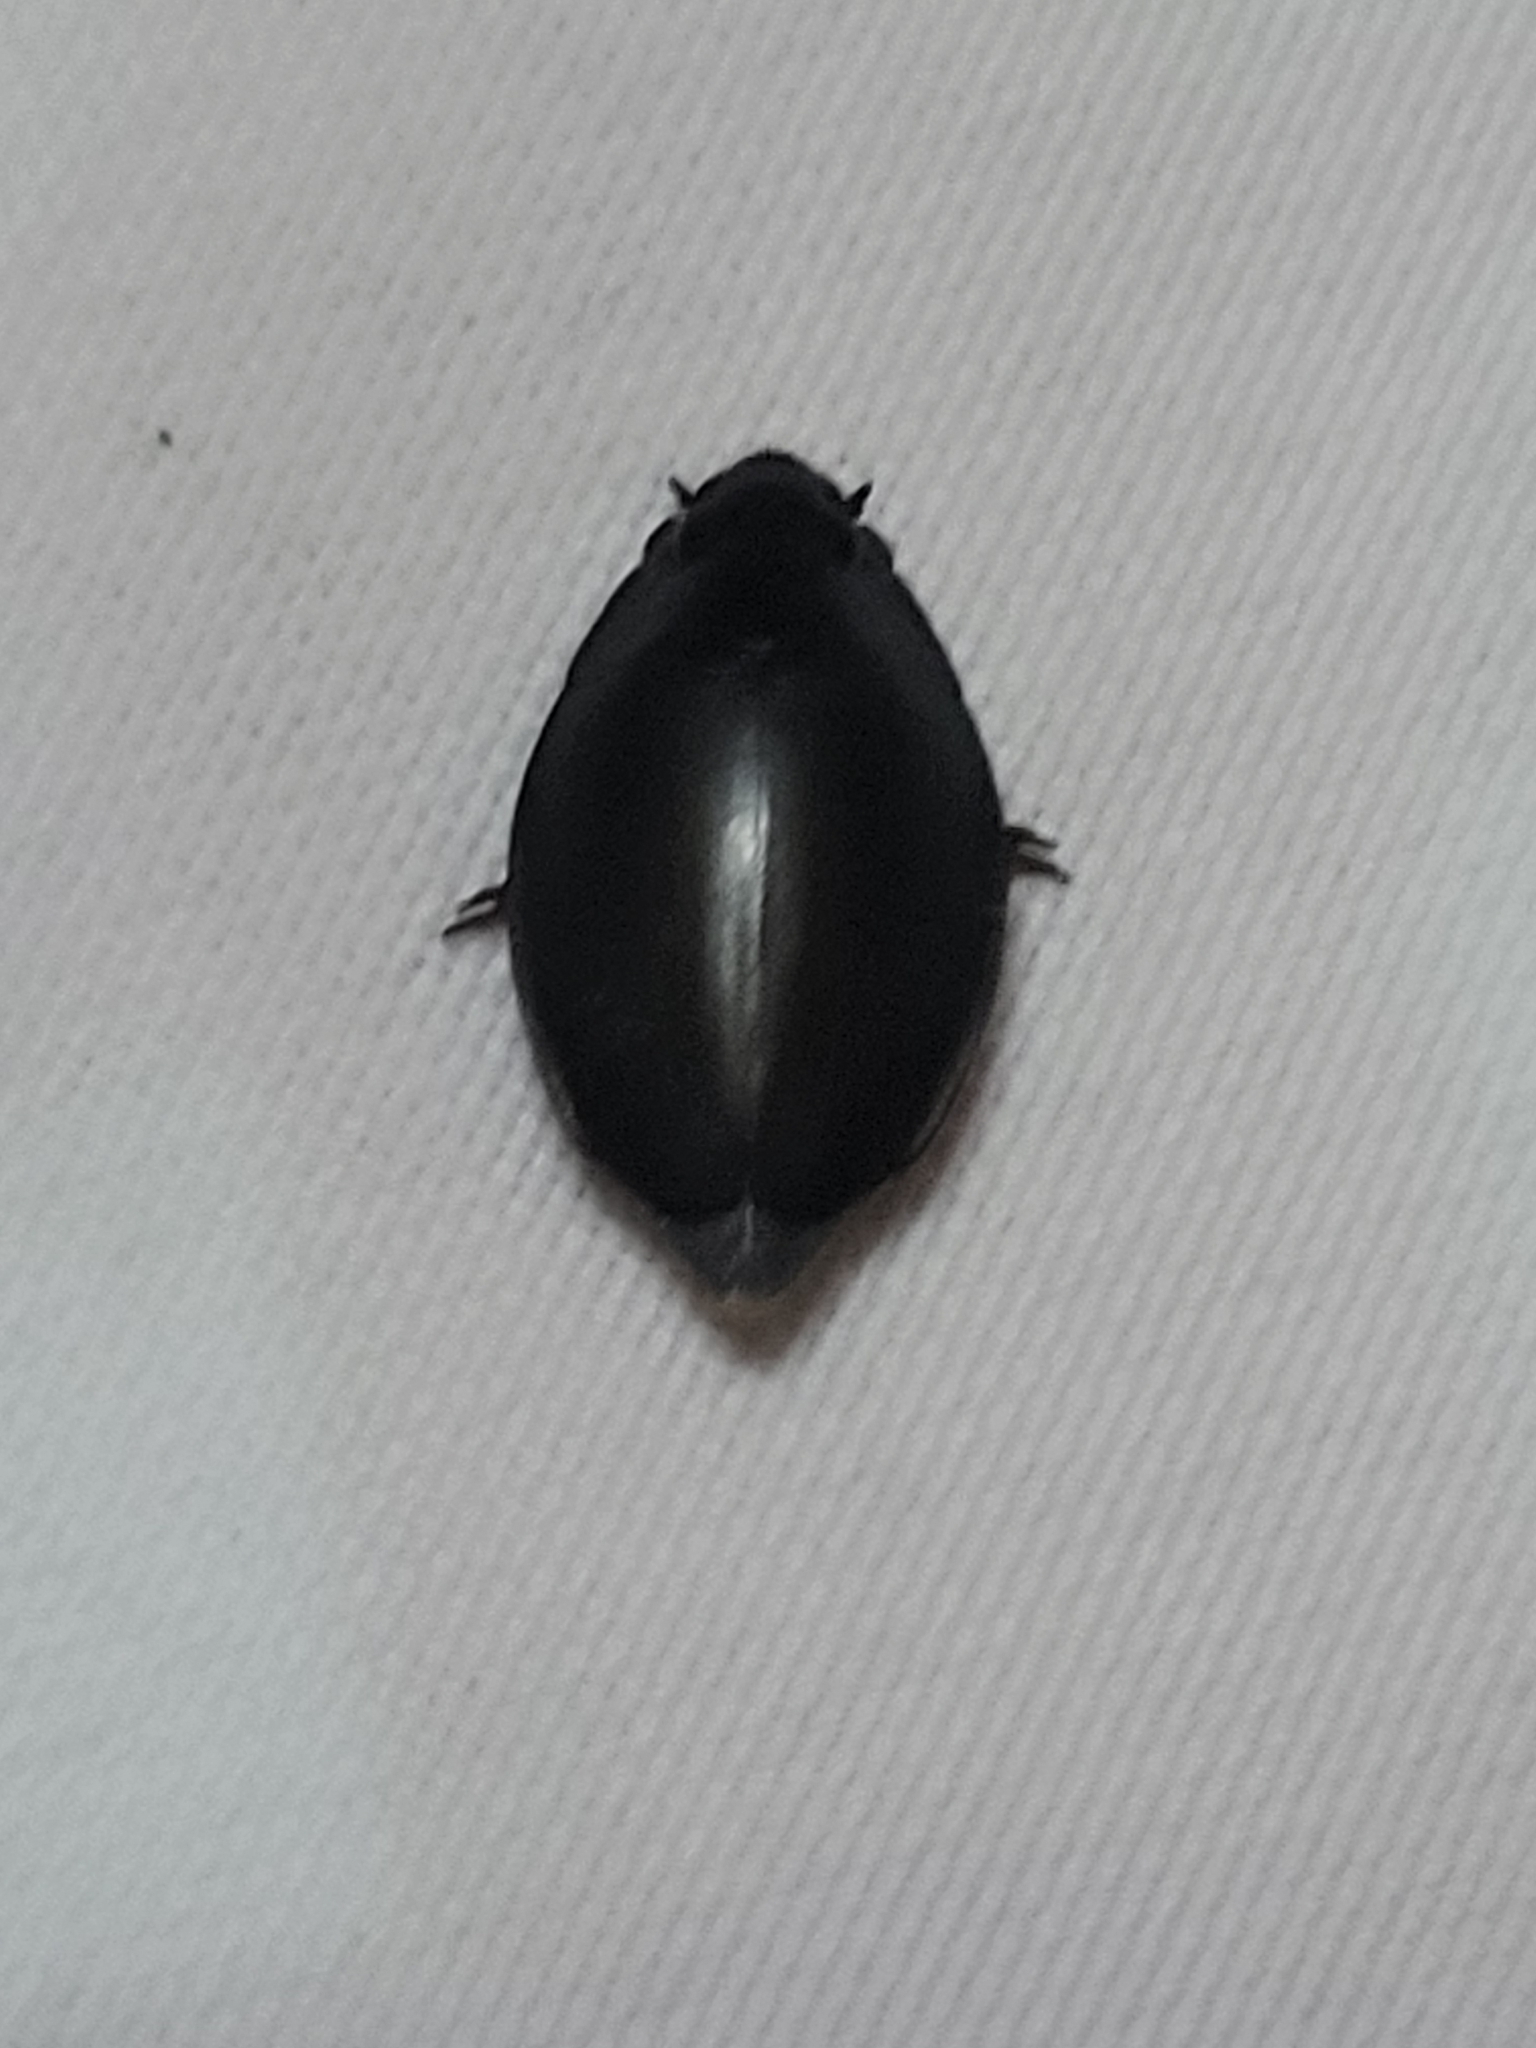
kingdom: Animalia
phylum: Arthropoda
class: Insecta
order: Coleoptera
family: Gyrinidae
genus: Dineutus
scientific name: Dineutus aereus
